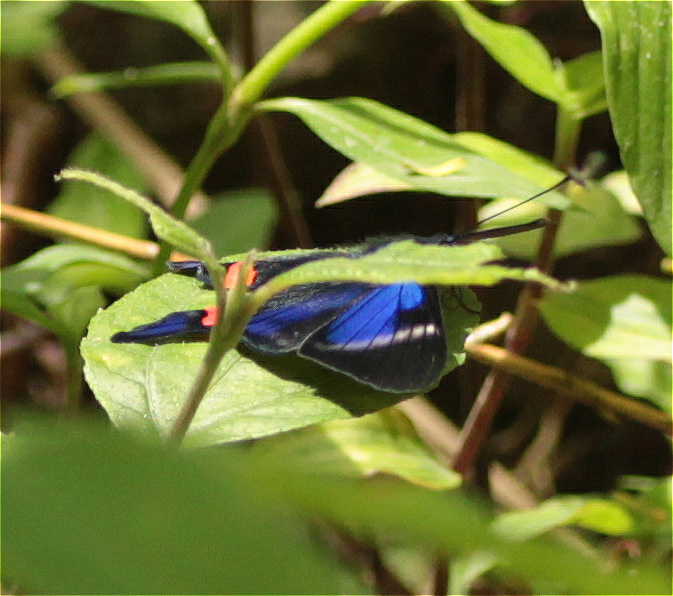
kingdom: Animalia
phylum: Arthropoda
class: Insecta
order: Lepidoptera
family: Riodinidae
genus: Rhetus
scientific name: Rhetus periander
